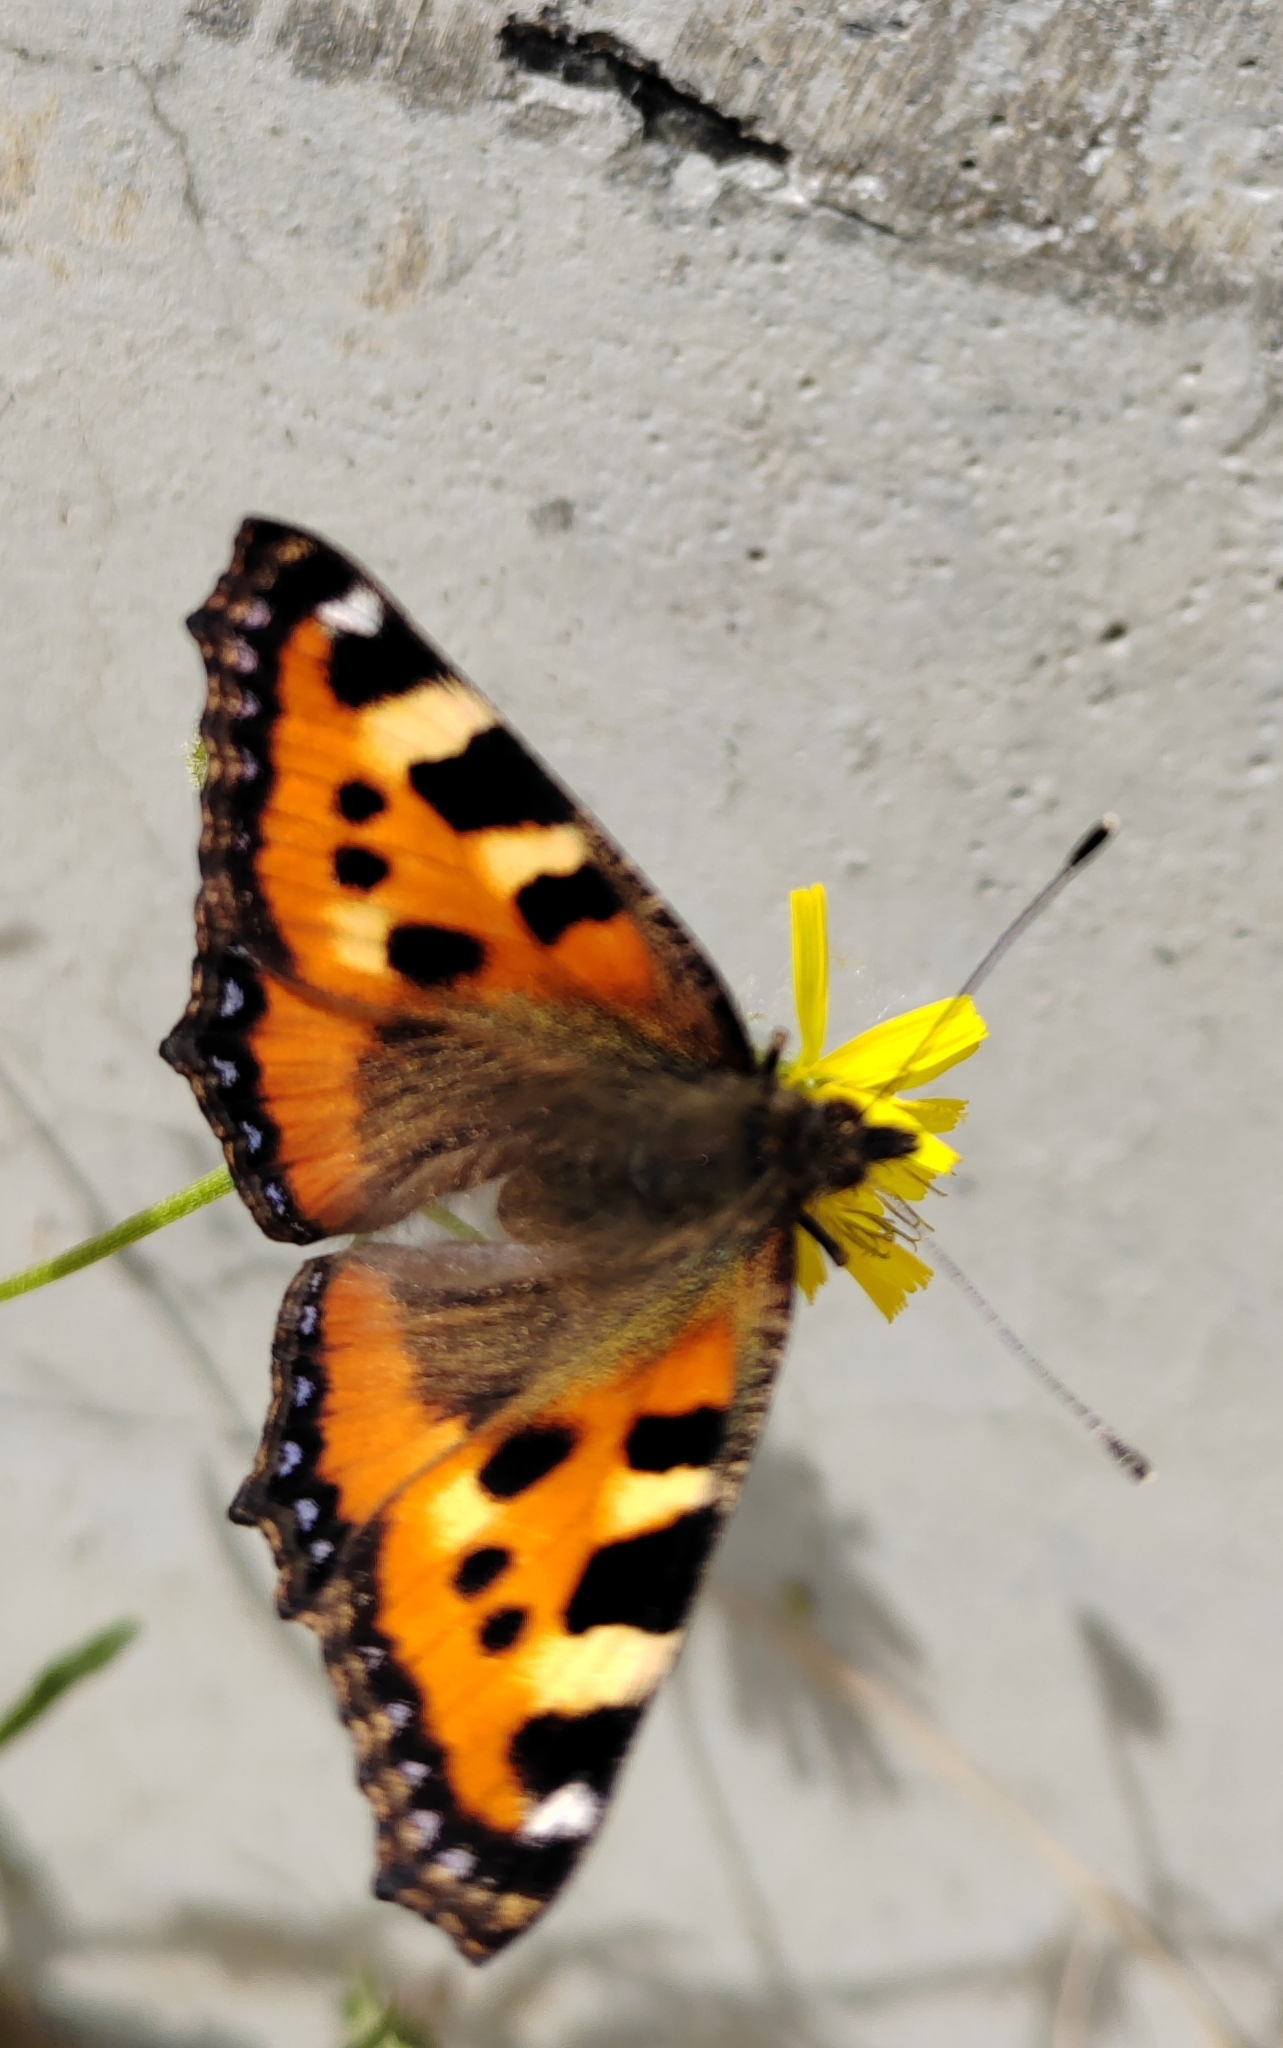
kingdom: Animalia
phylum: Arthropoda
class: Insecta
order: Lepidoptera
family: Nymphalidae
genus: Aglais
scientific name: Aglais urticae
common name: Small tortoiseshell
